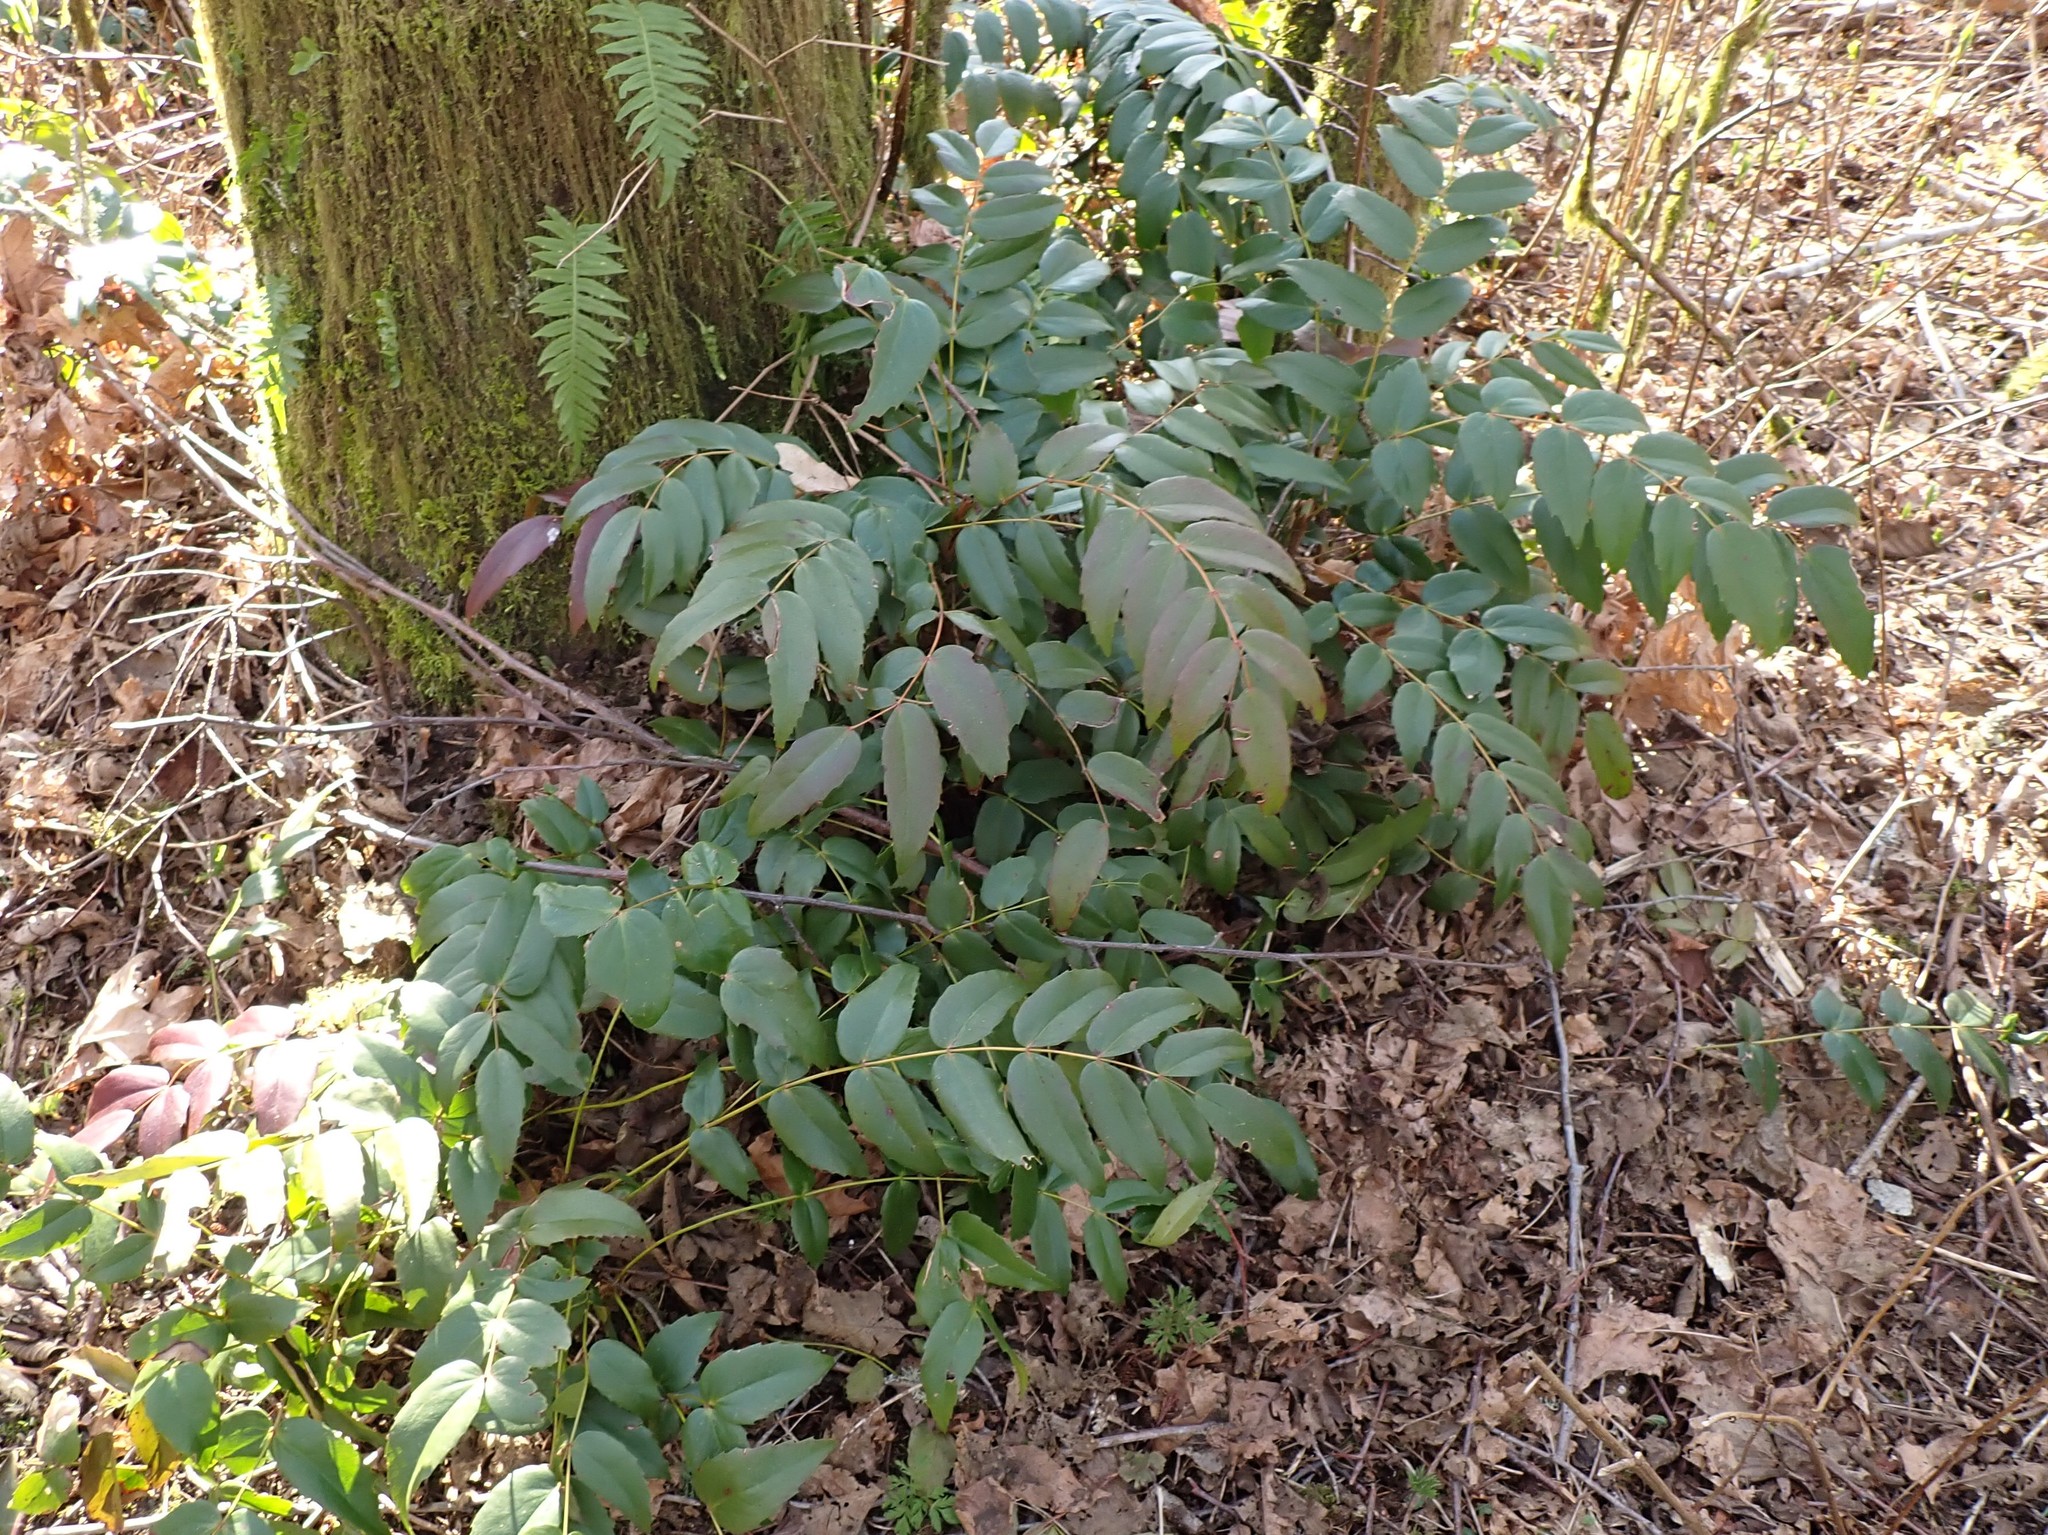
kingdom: Plantae
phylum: Tracheophyta
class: Magnoliopsida
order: Ranunculales
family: Berberidaceae
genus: Mahonia
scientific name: Mahonia nervosa
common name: Cascade oregon-grape
